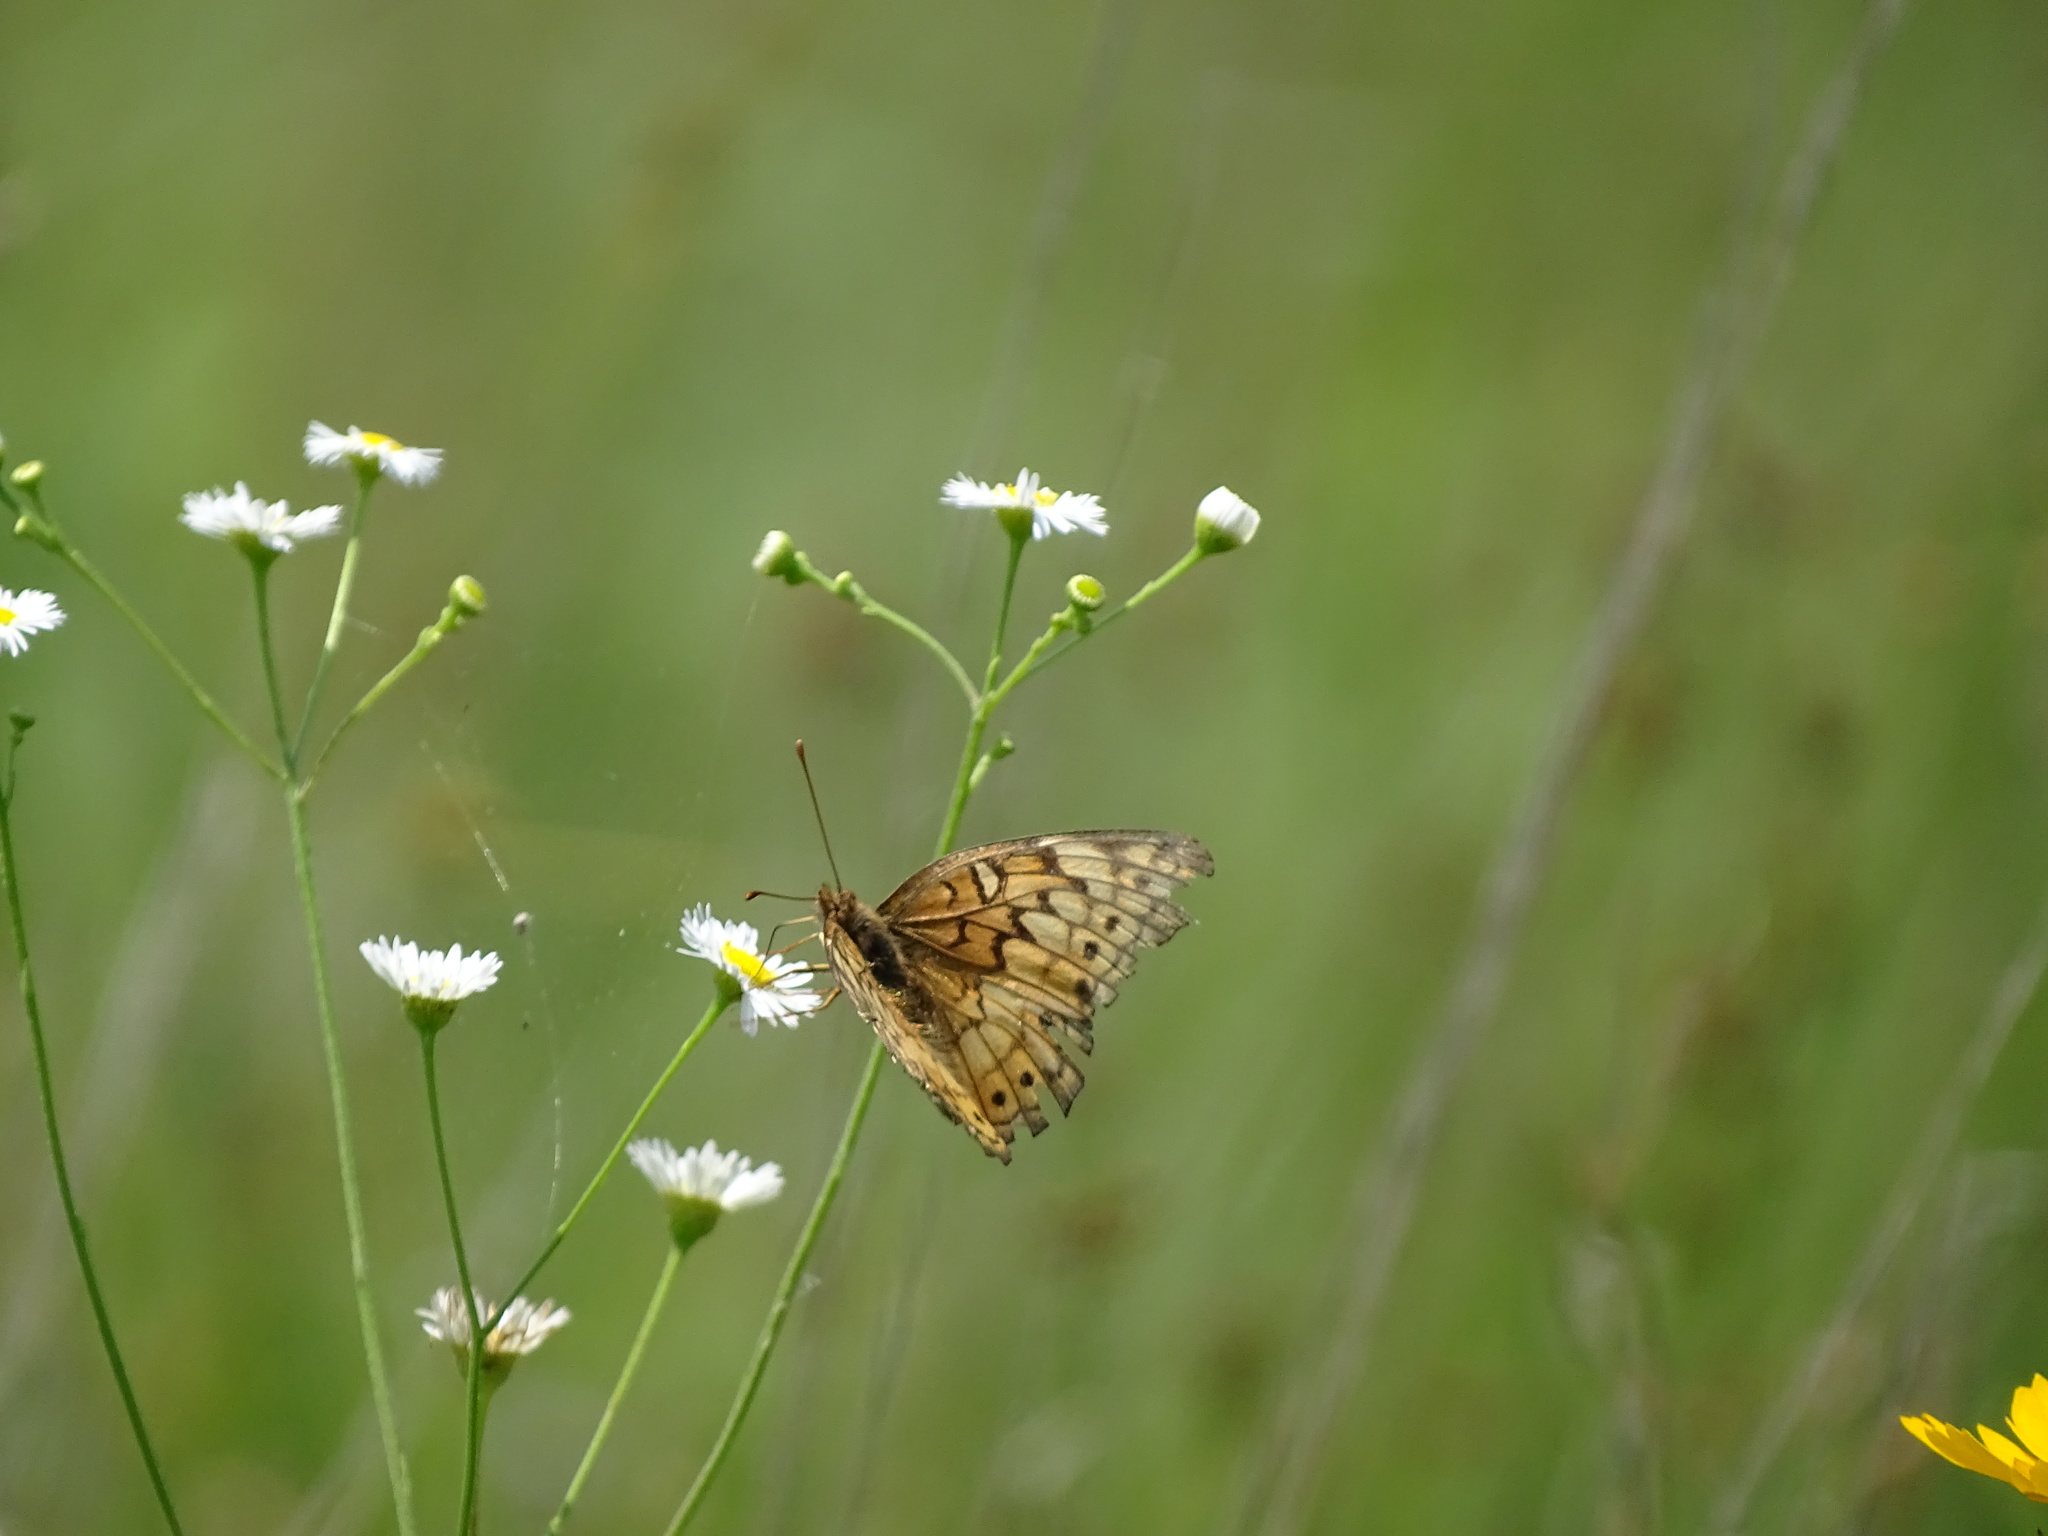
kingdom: Animalia
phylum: Arthropoda
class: Insecta
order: Lepidoptera
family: Nymphalidae
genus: Euptoieta
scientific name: Euptoieta claudia
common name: Variegated fritillary
